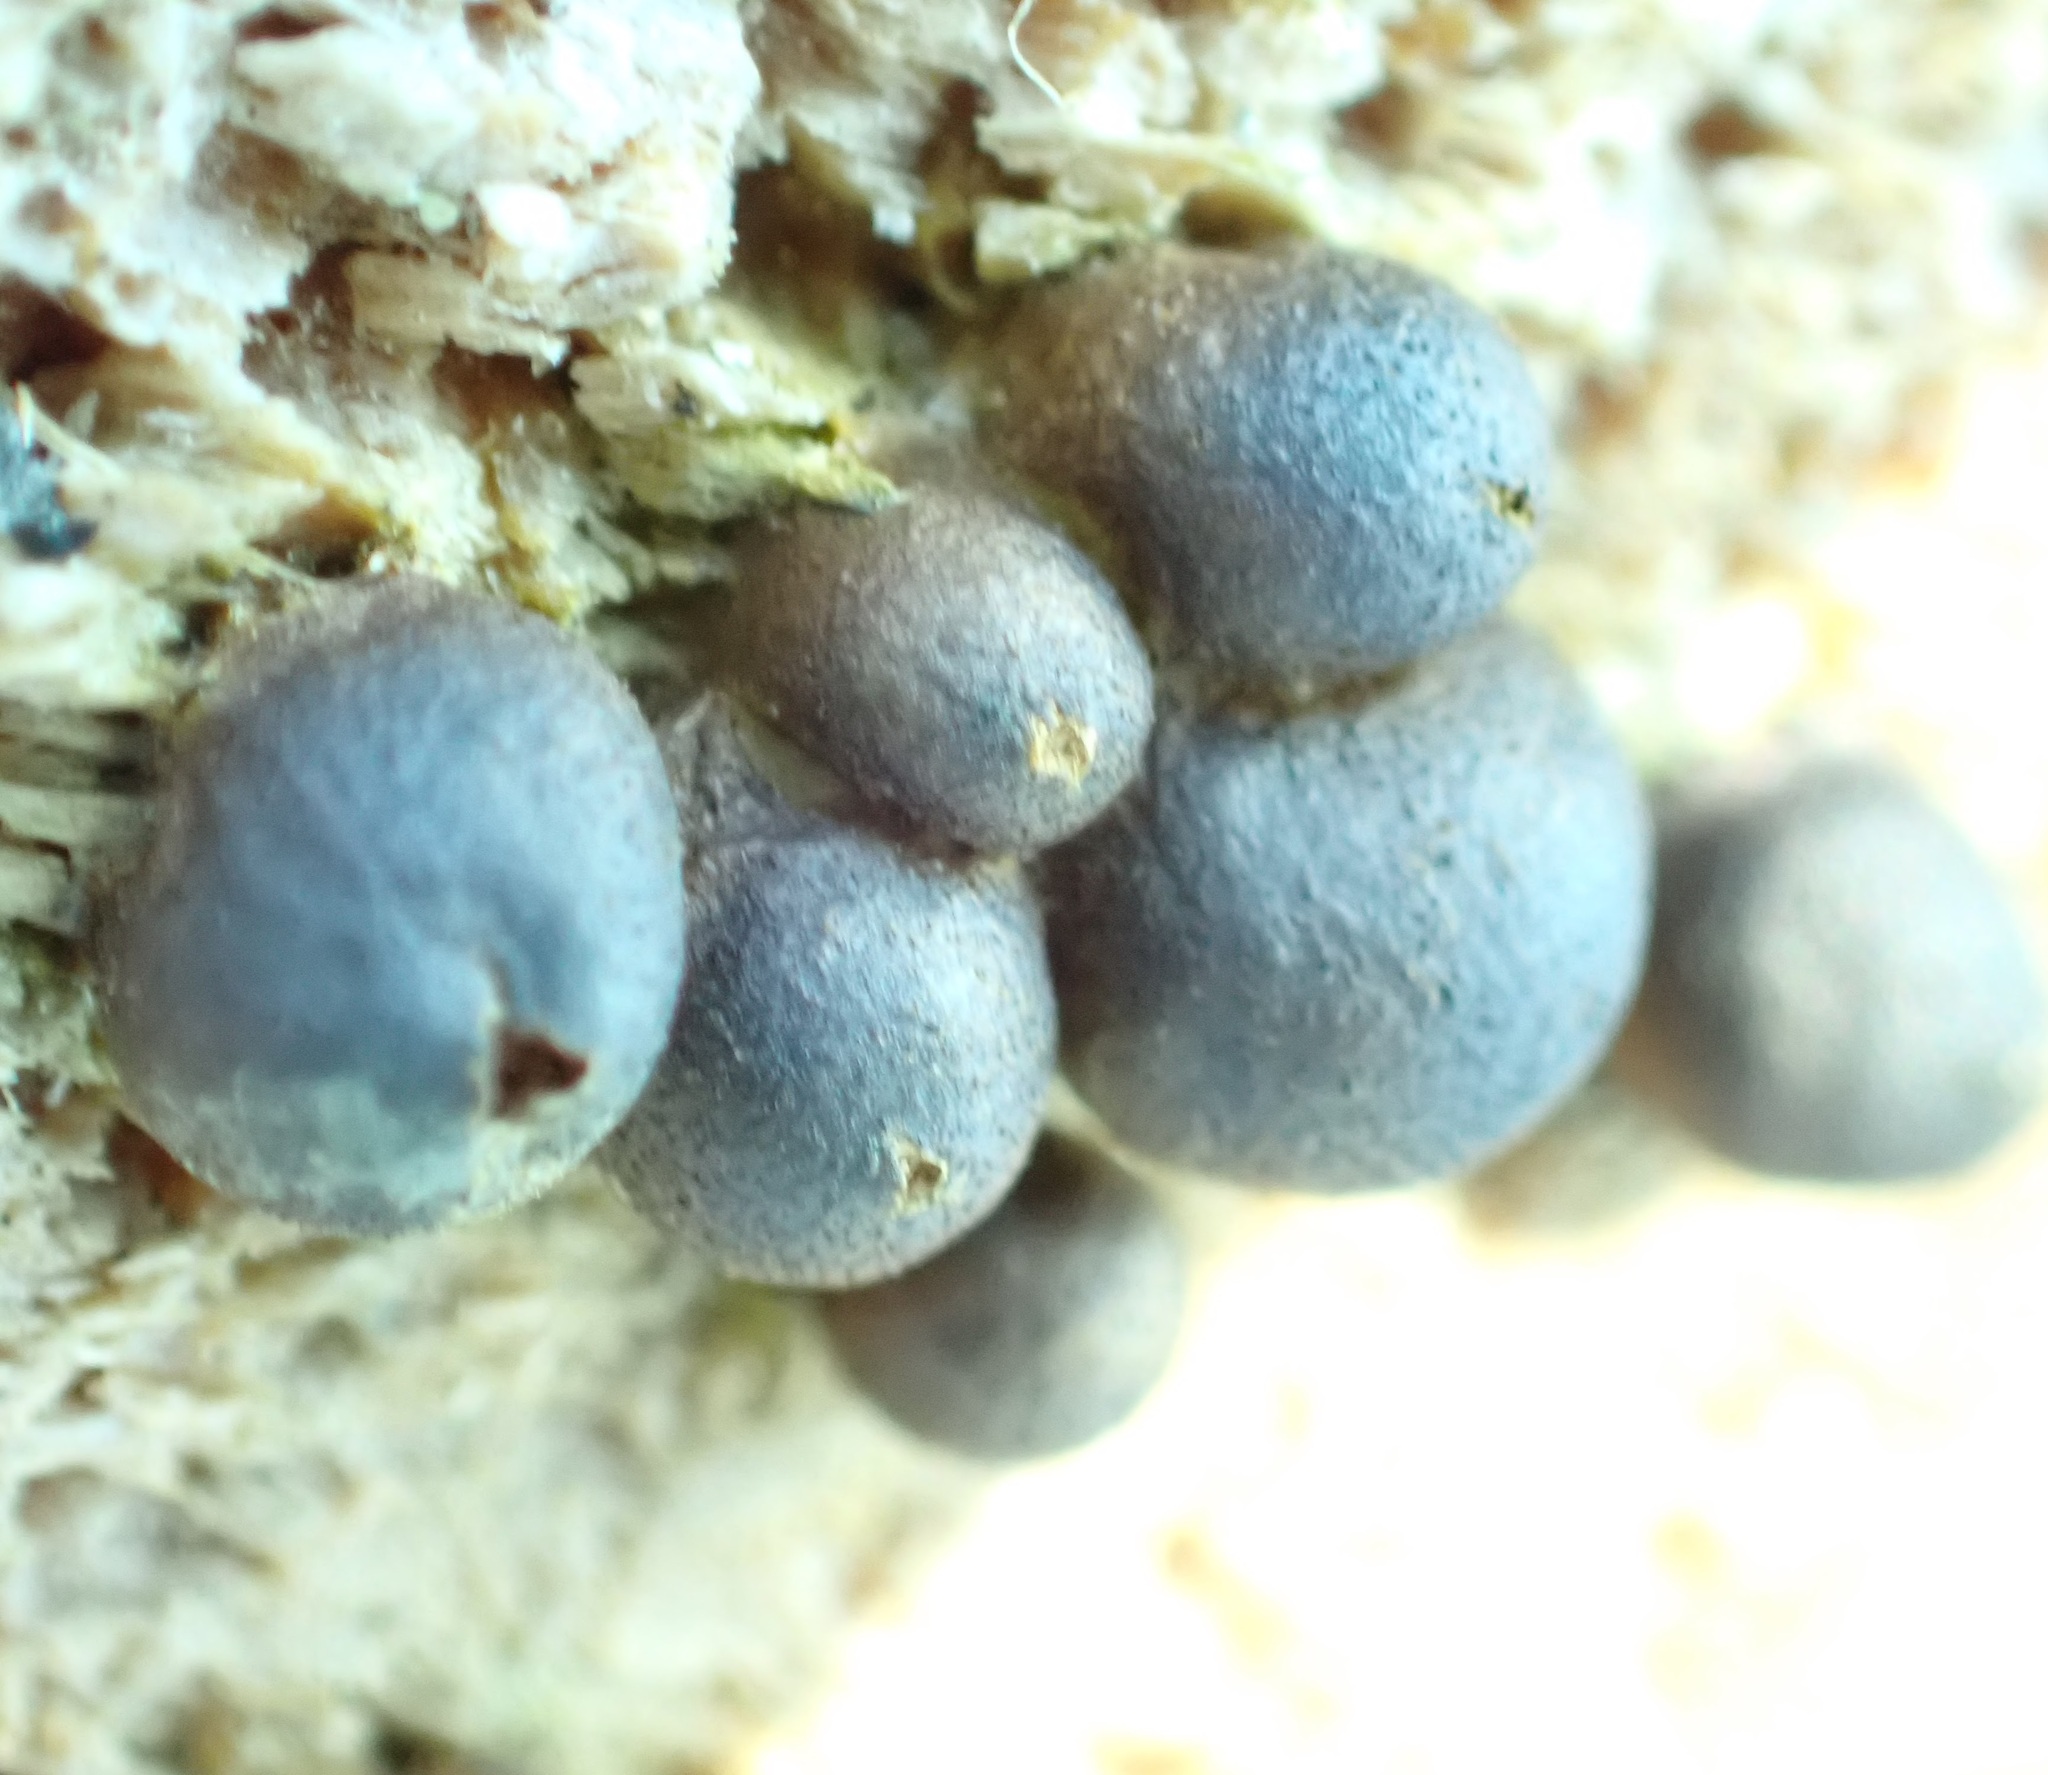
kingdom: Protozoa
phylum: Mycetozoa
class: Myxomycetes
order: Cribrariales
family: Tubiferaceae
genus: Lycogala
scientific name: Lycogala
